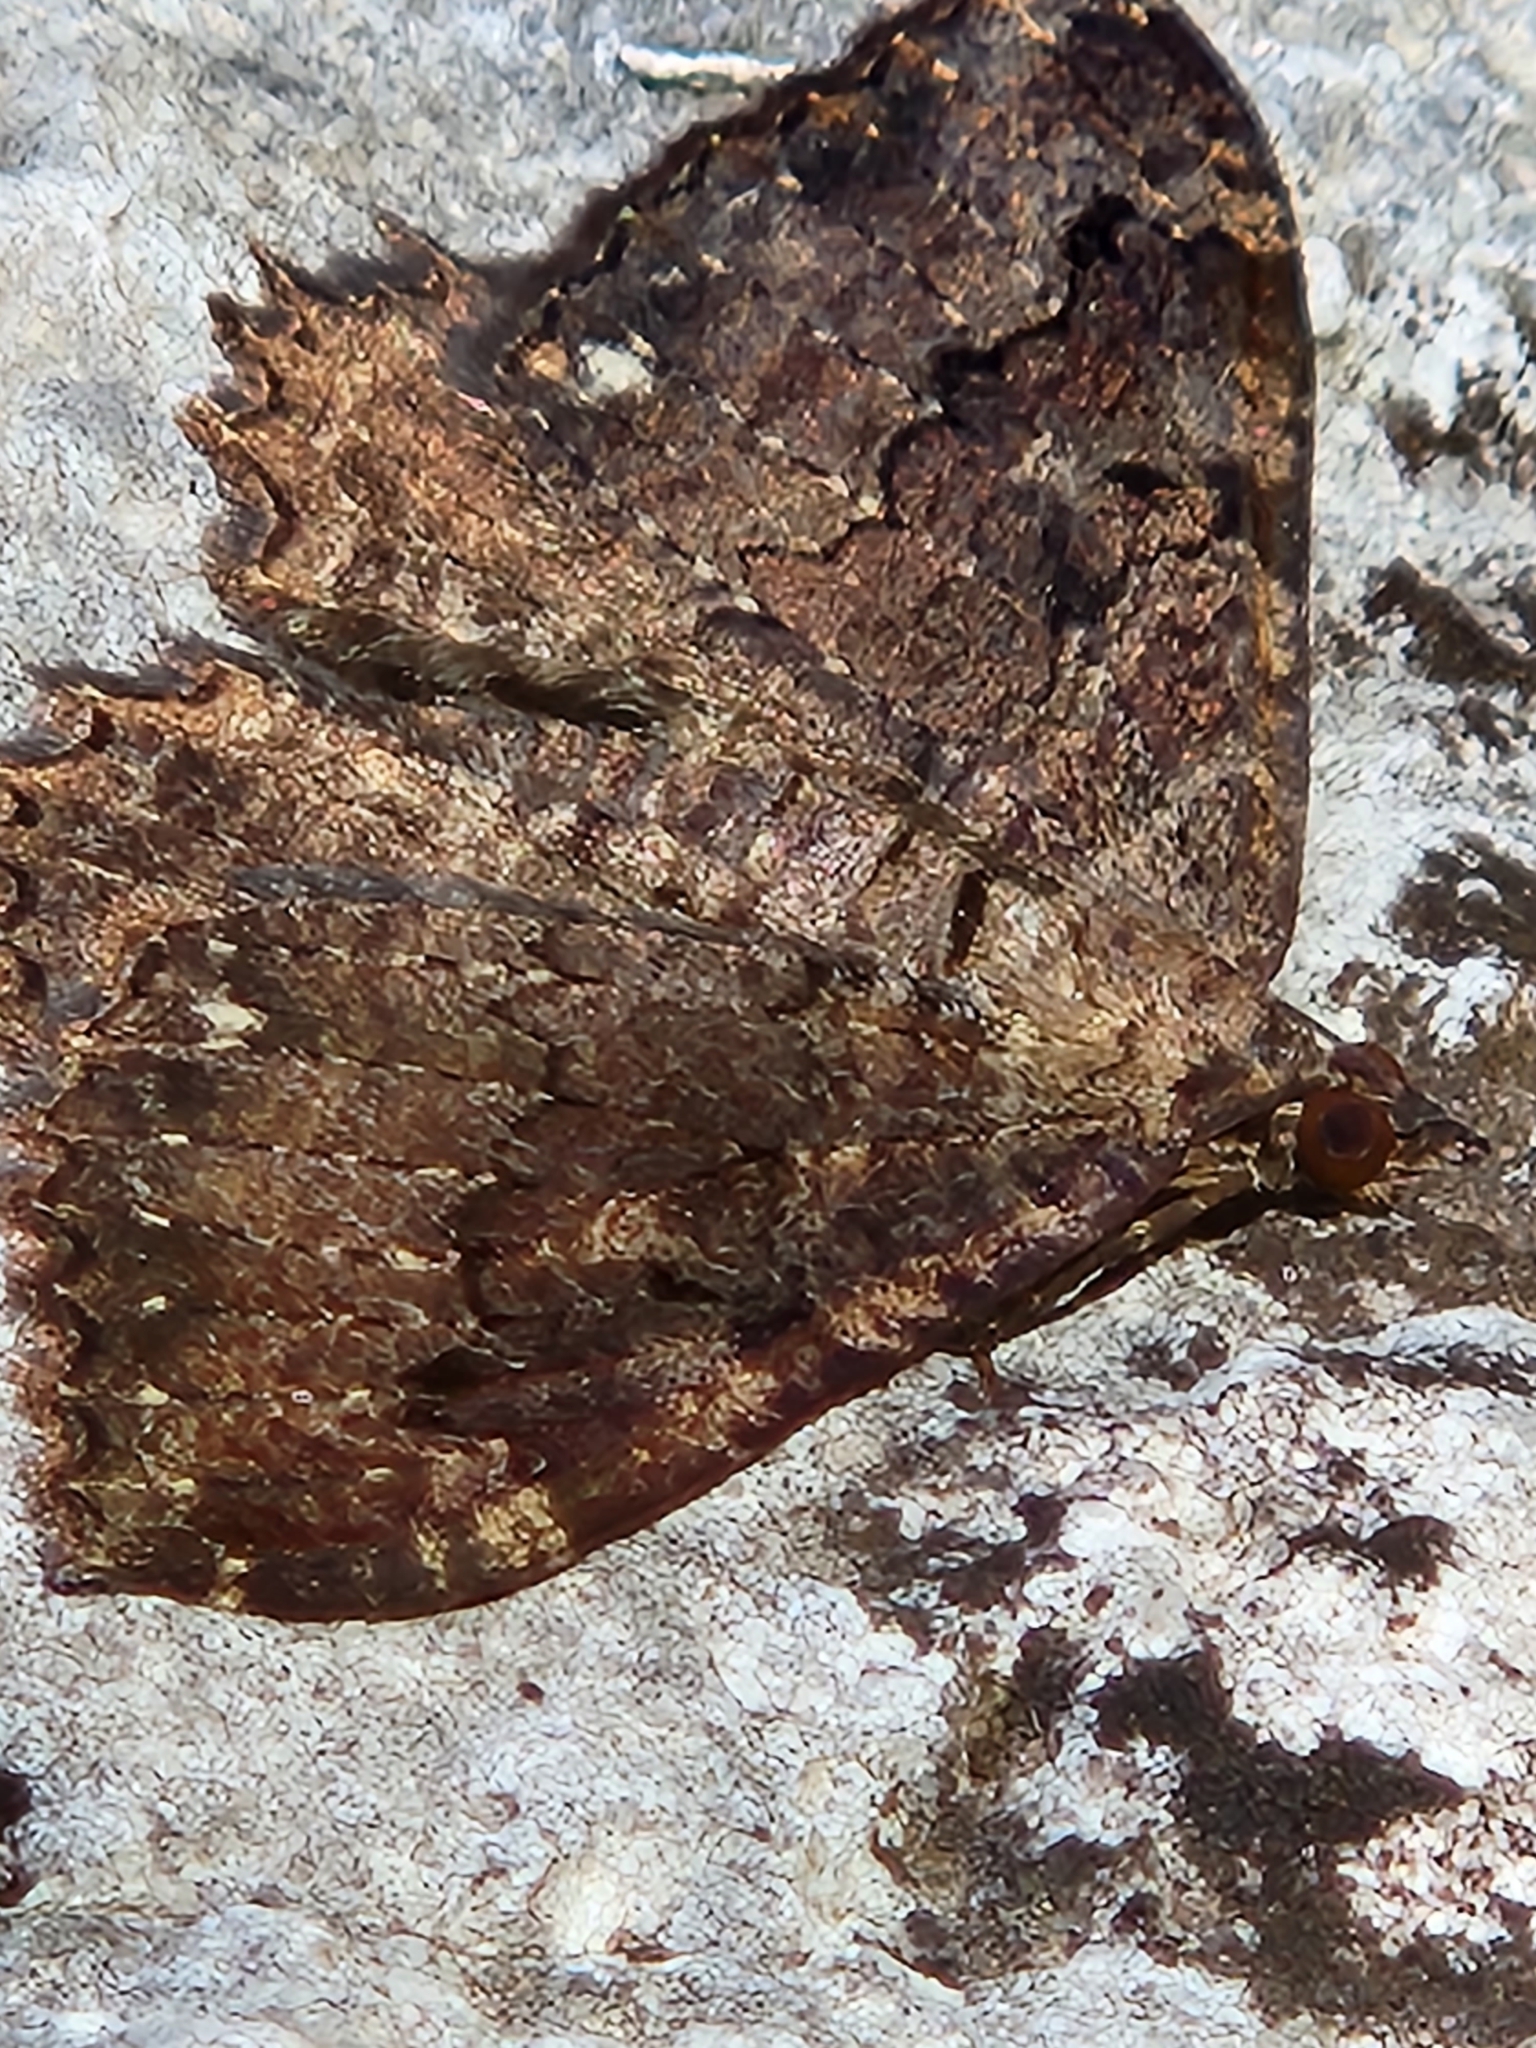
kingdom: Animalia
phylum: Arthropoda
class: Insecta
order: Lepidoptera
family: Geometridae
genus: Rheumaptera
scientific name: Rheumaptera
